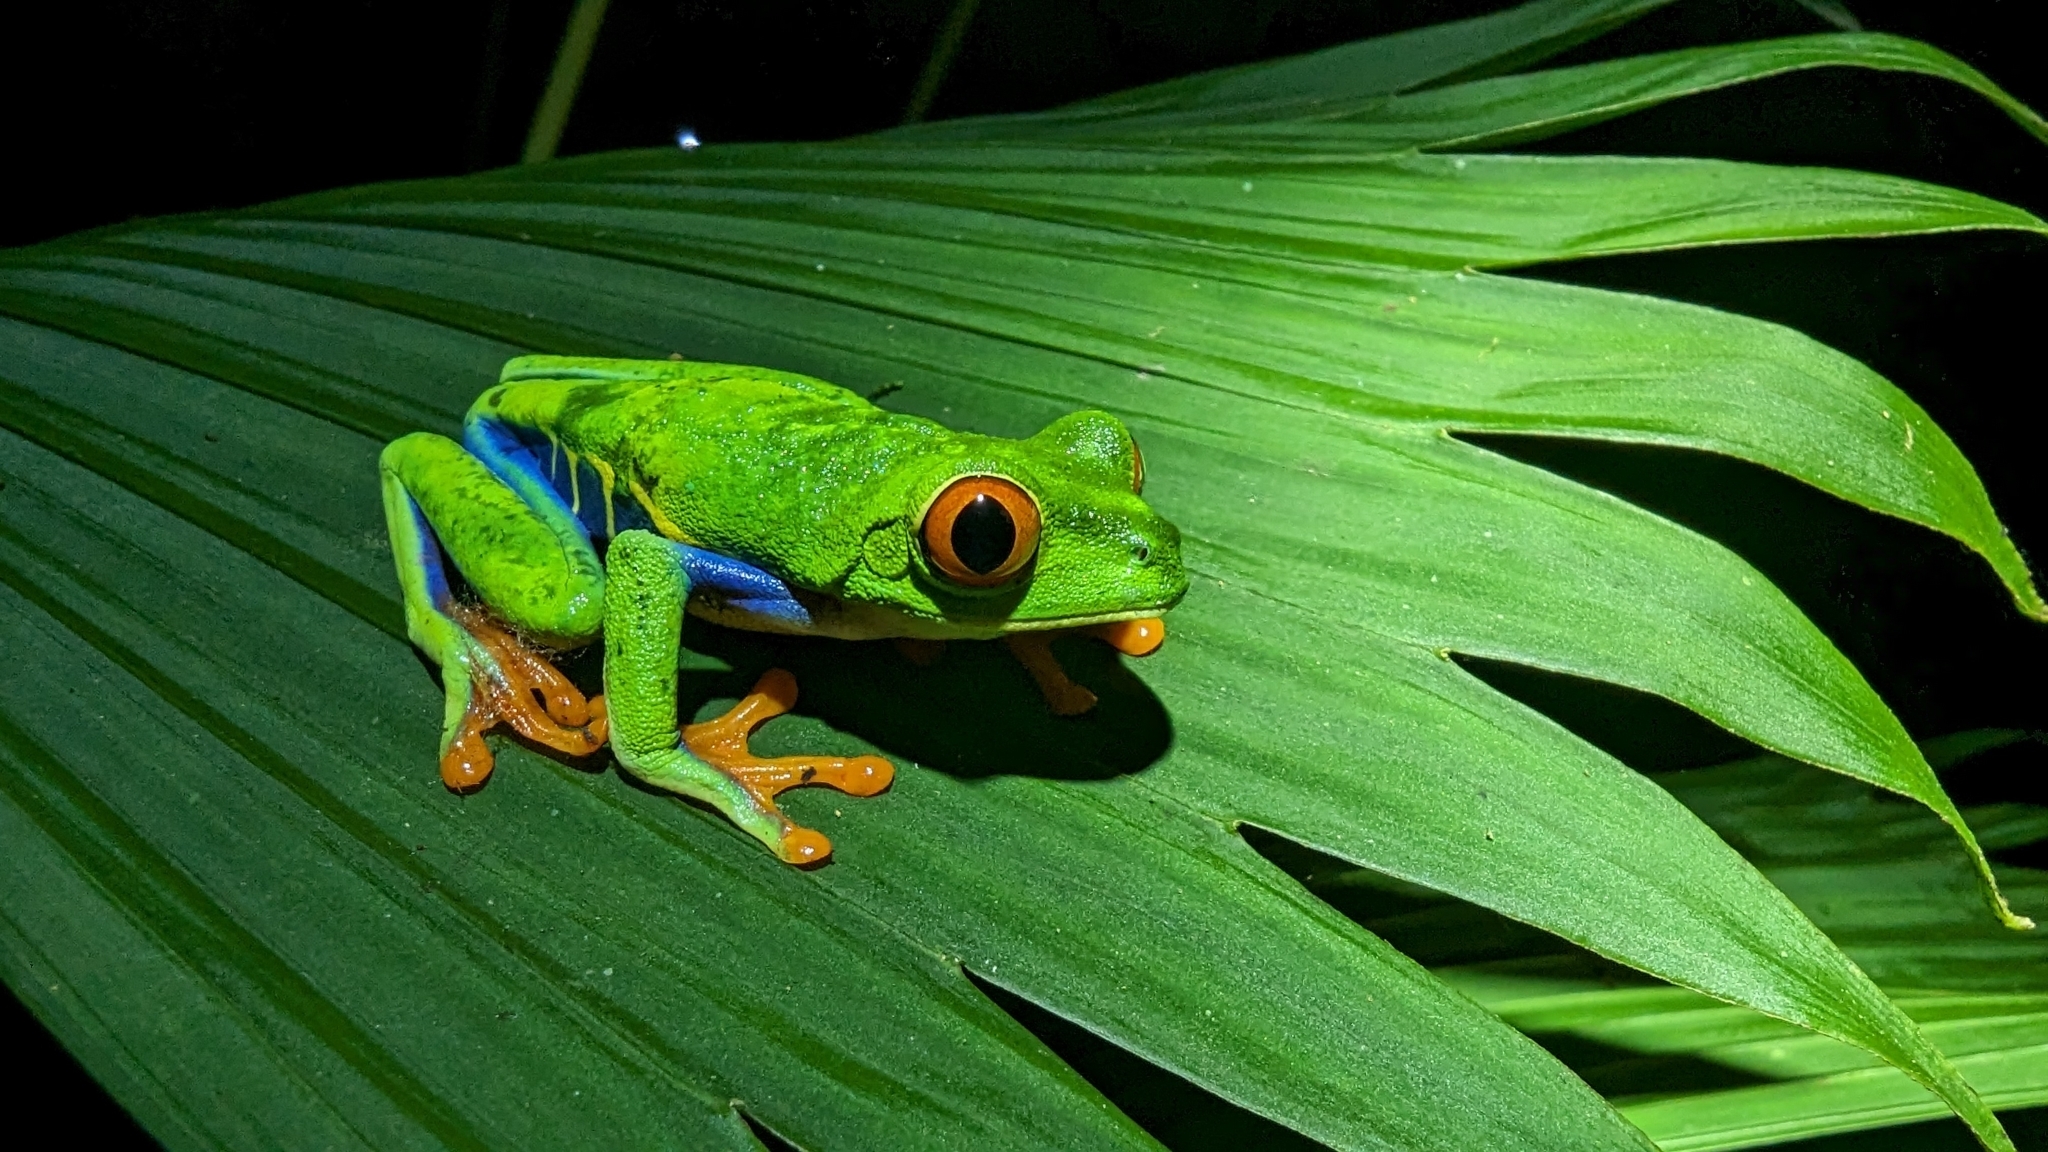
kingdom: Animalia
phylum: Chordata
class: Amphibia
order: Anura
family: Phyllomedusidae
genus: Agalychnis
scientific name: Agalychnis callidryas
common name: Red-eyed treefrog
